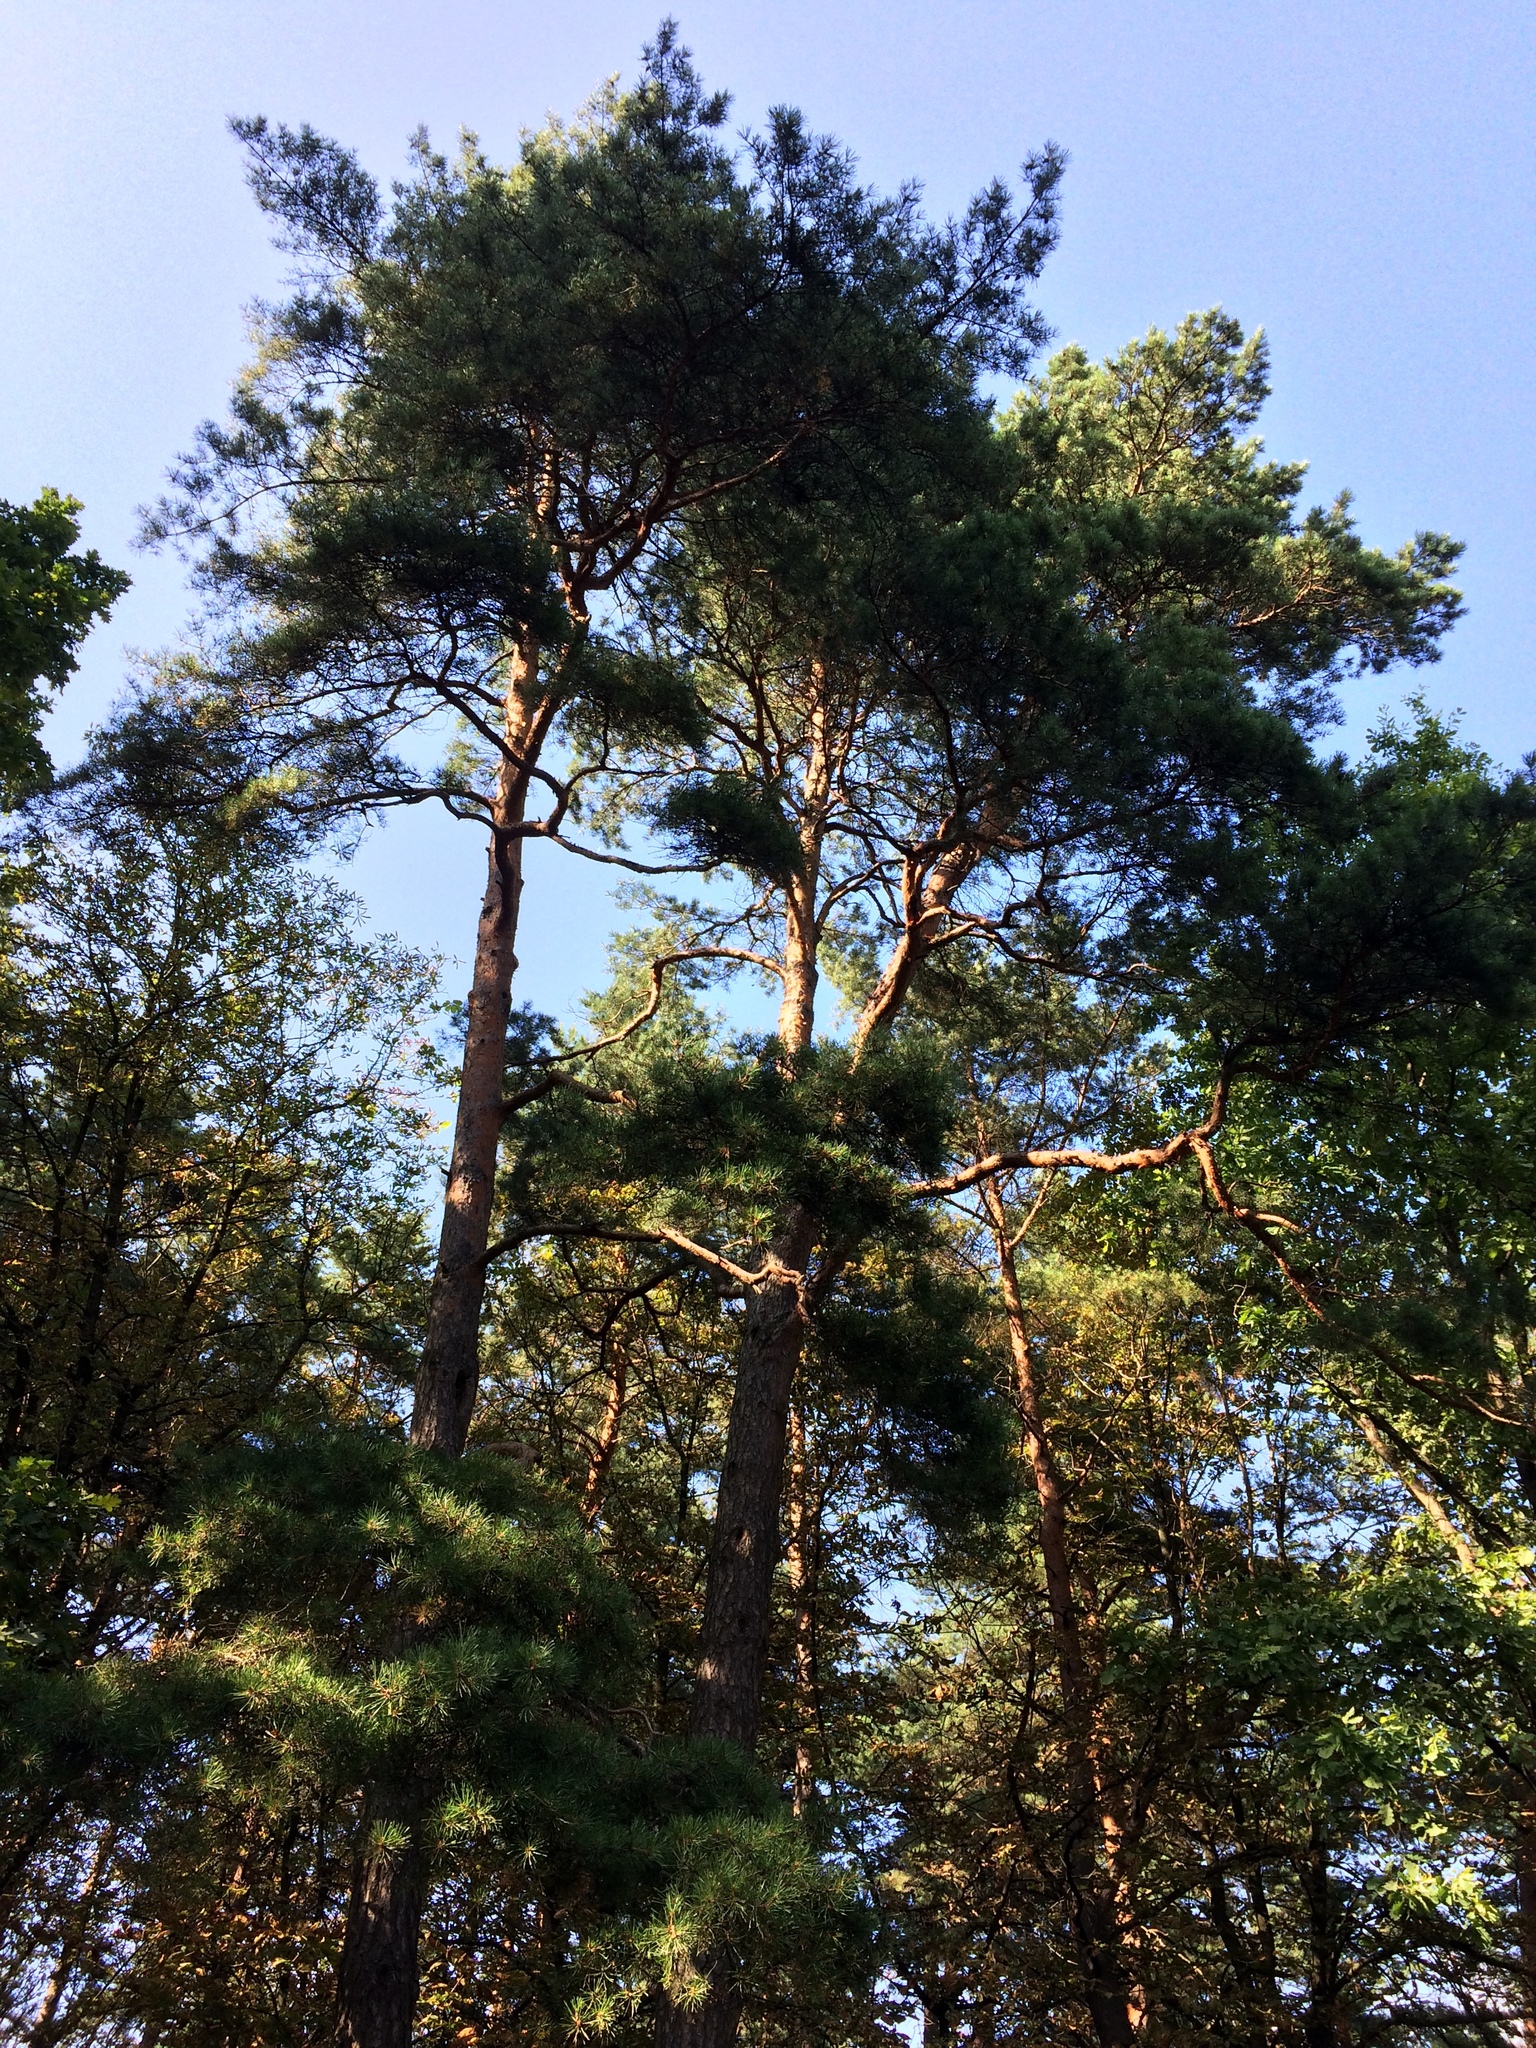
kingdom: Plantae
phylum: Tracheophyta
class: Pinopsida
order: Pinales
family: Pinaceae
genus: Pinus
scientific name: Pinus sylvestris
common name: Scots pine
